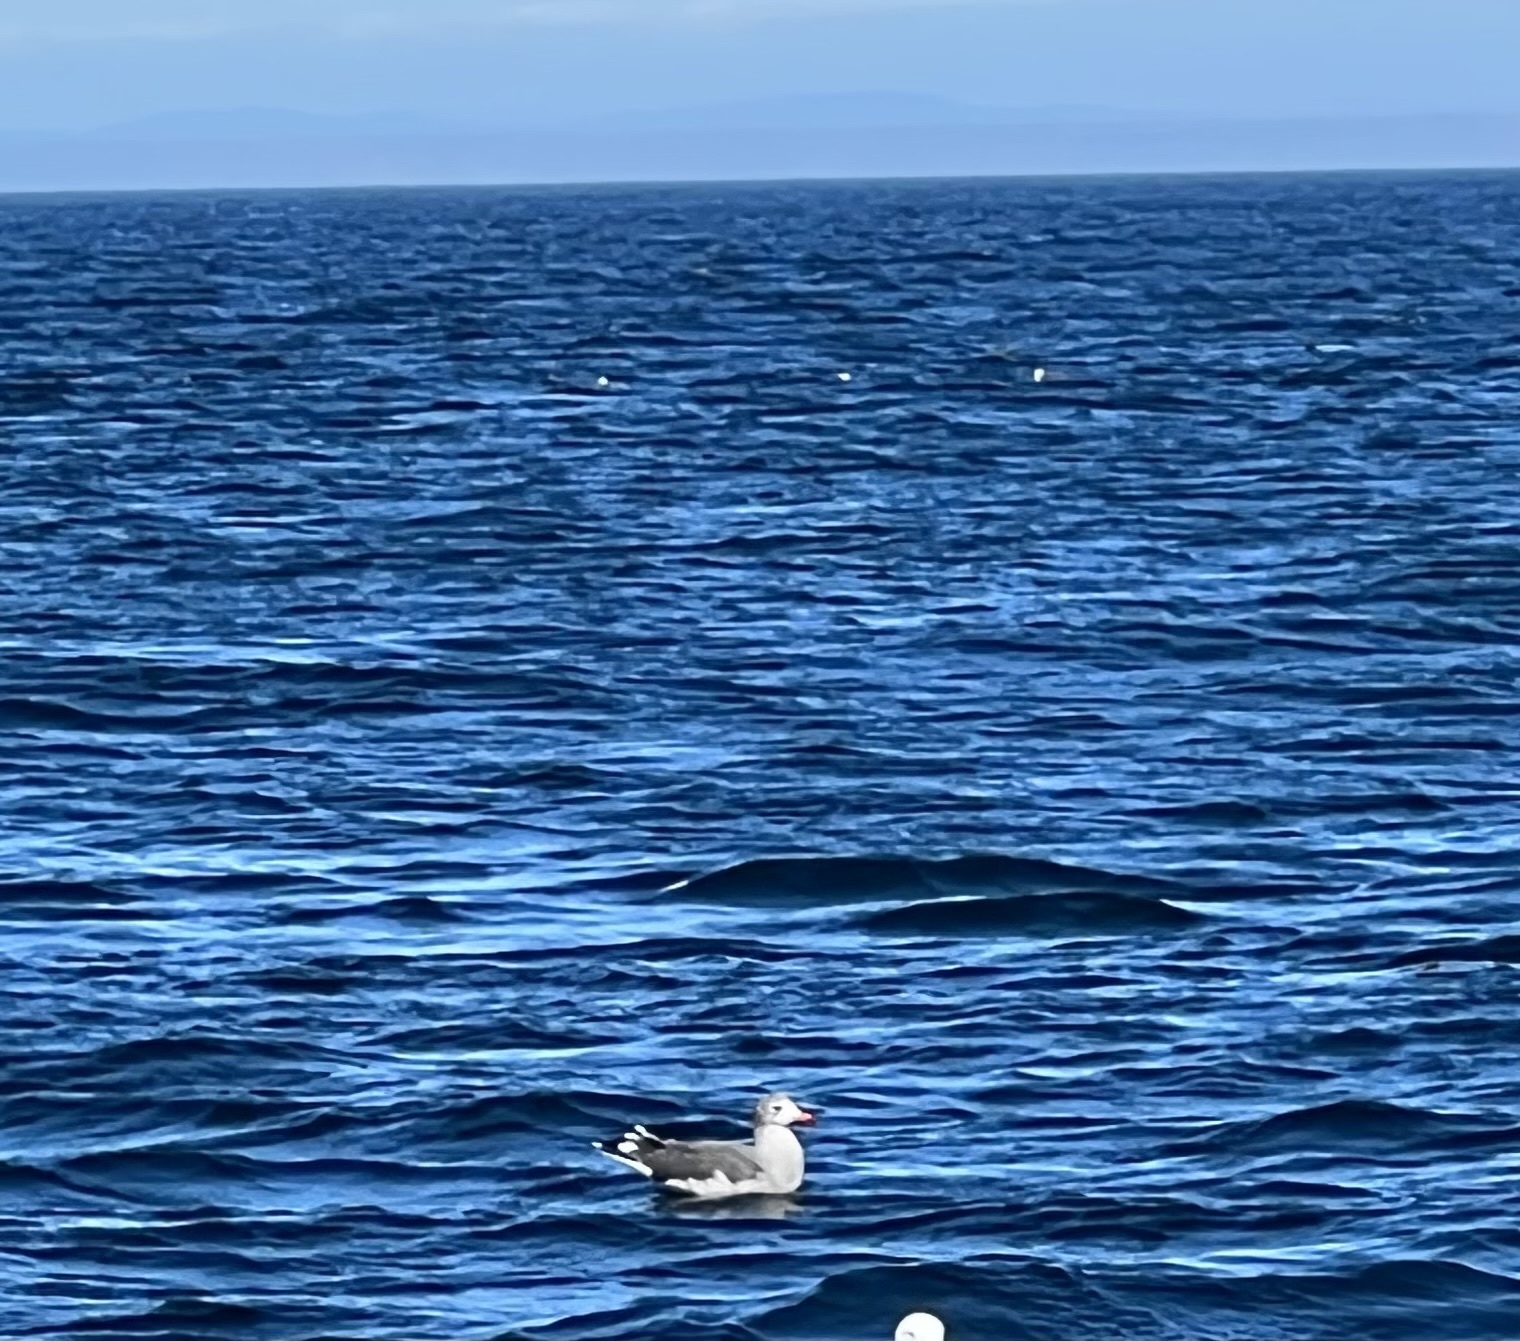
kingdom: Animalia
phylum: Chordata
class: Aves
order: Charadriiformes
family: Laridae
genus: Larus
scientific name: Larus heermanni
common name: Heermann's gull
